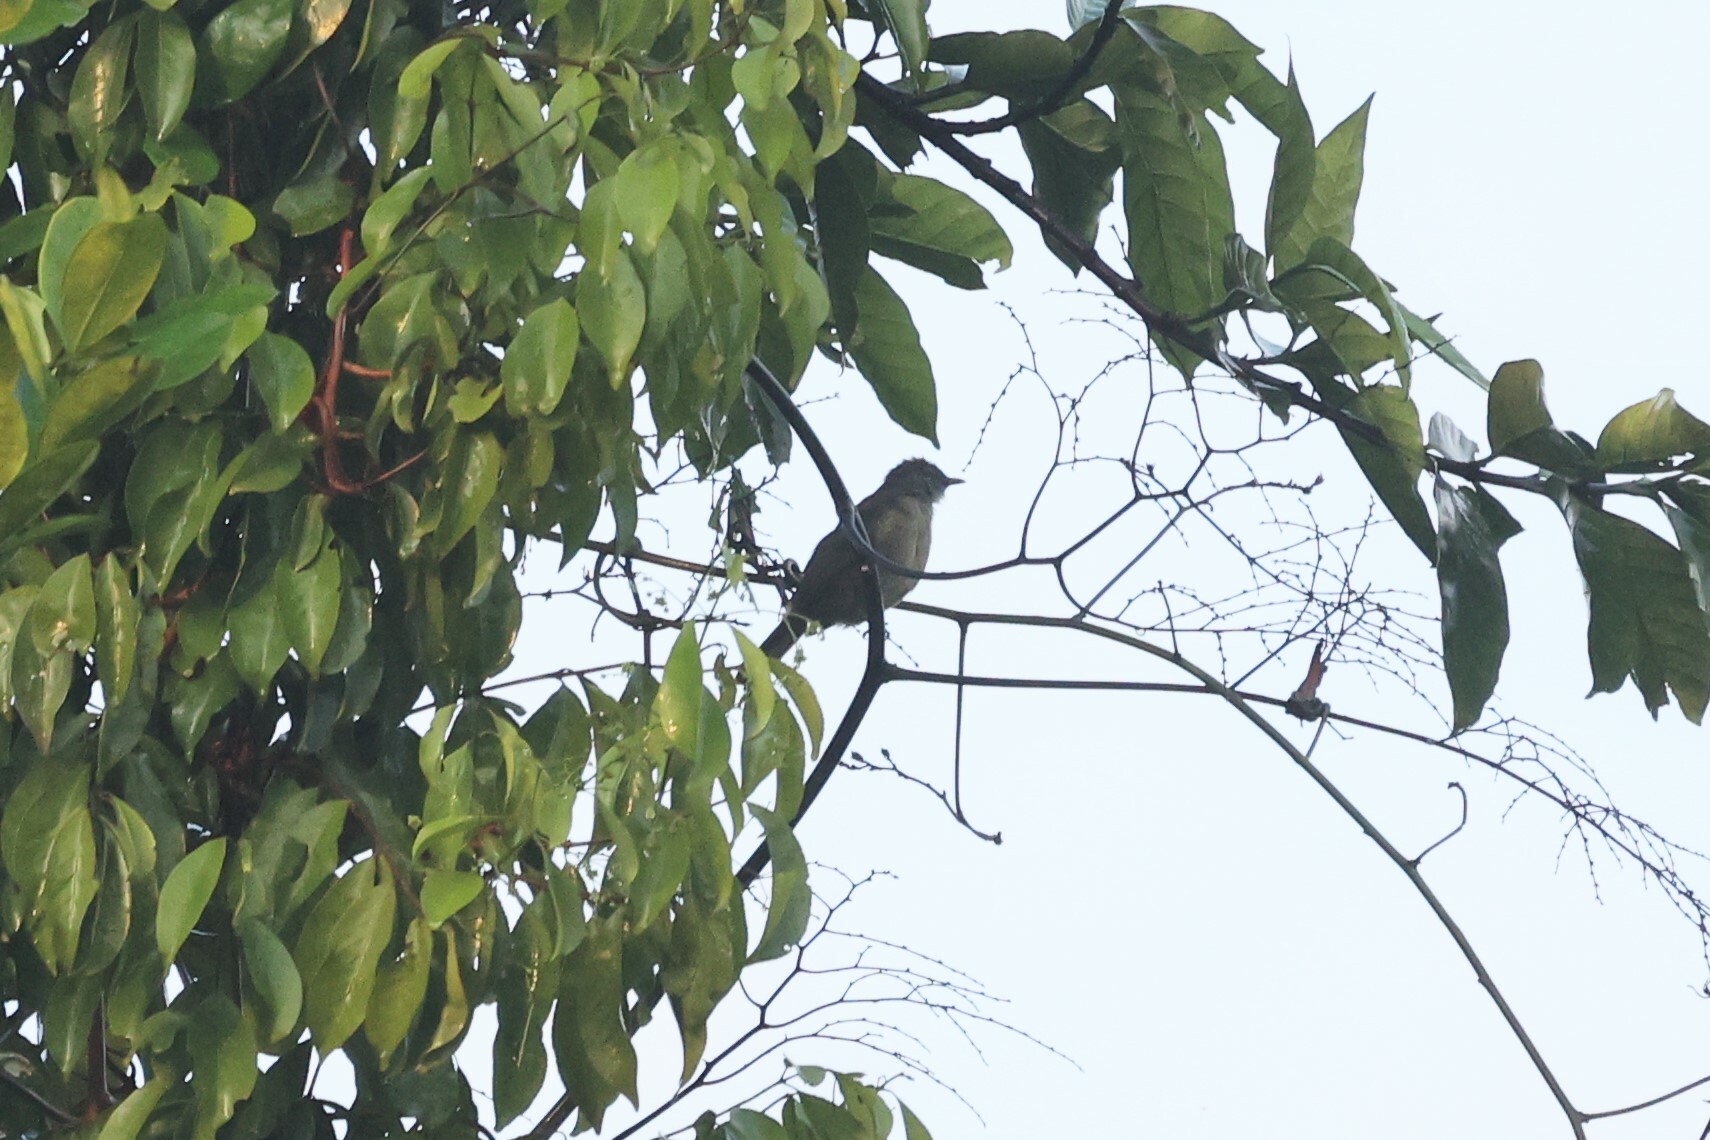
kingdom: Animalia
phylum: Chordata
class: Aves
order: Passeriformes
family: Pycnonotidae
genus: Eurillas
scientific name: Eurillas gracilis
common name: Little grey greenbul
